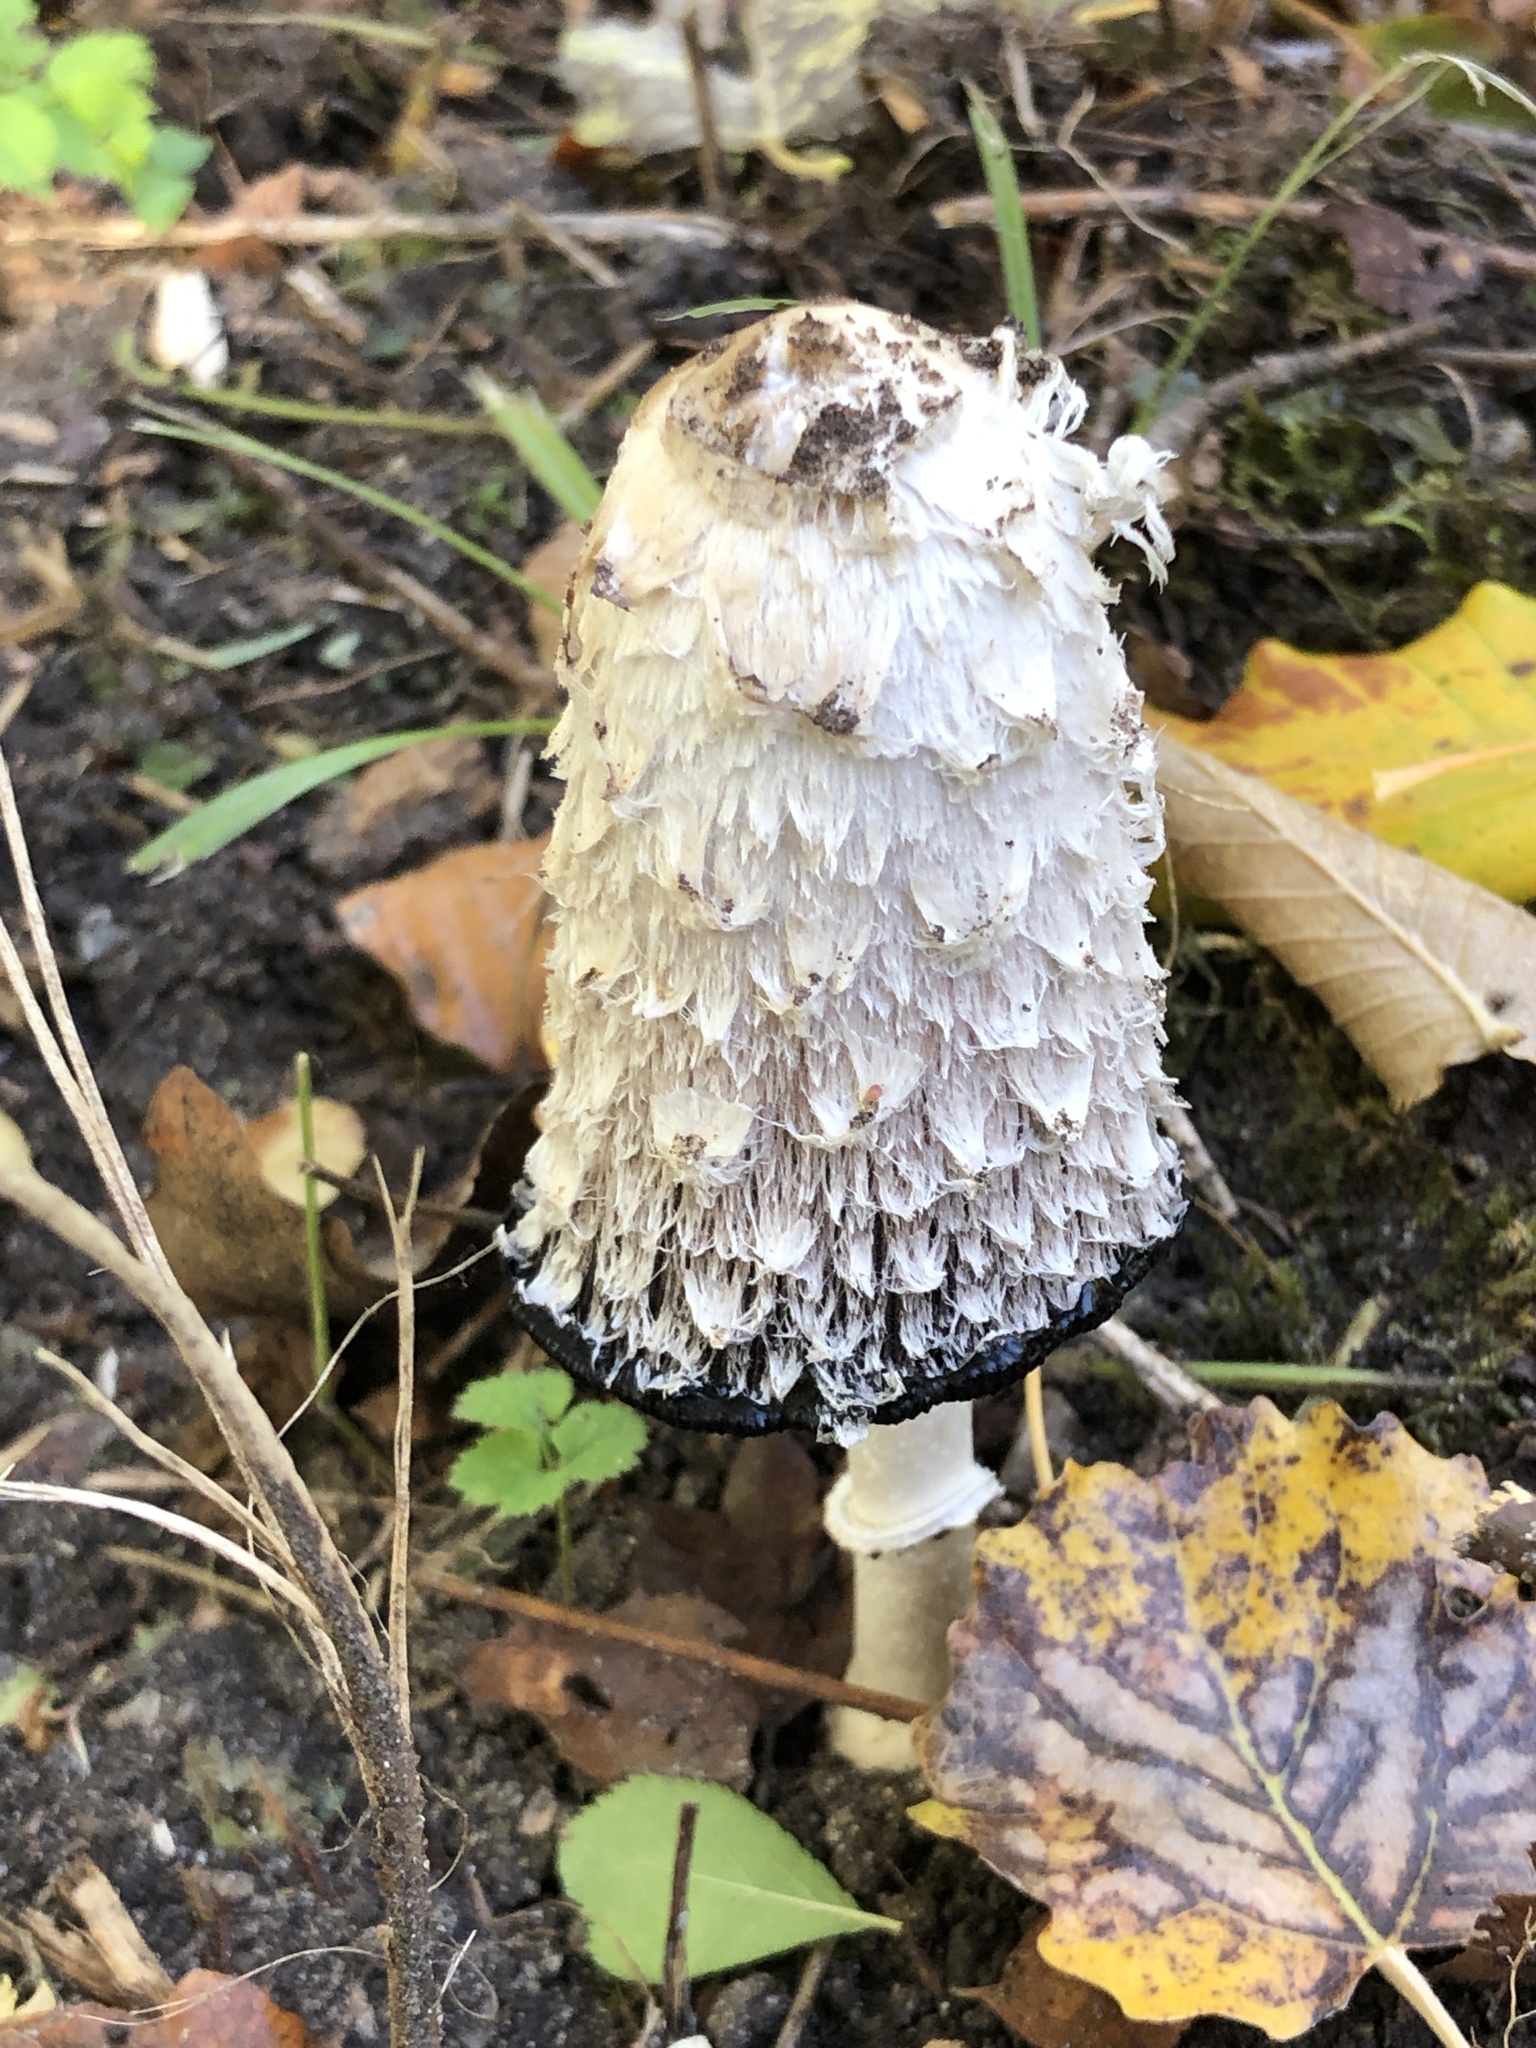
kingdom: Fungi
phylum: Basidiomycota
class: Agaricomycetes
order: Agaricales
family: Agaricaceae
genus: Coprinus
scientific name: Coprinus comatus
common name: Lawyer's wig
